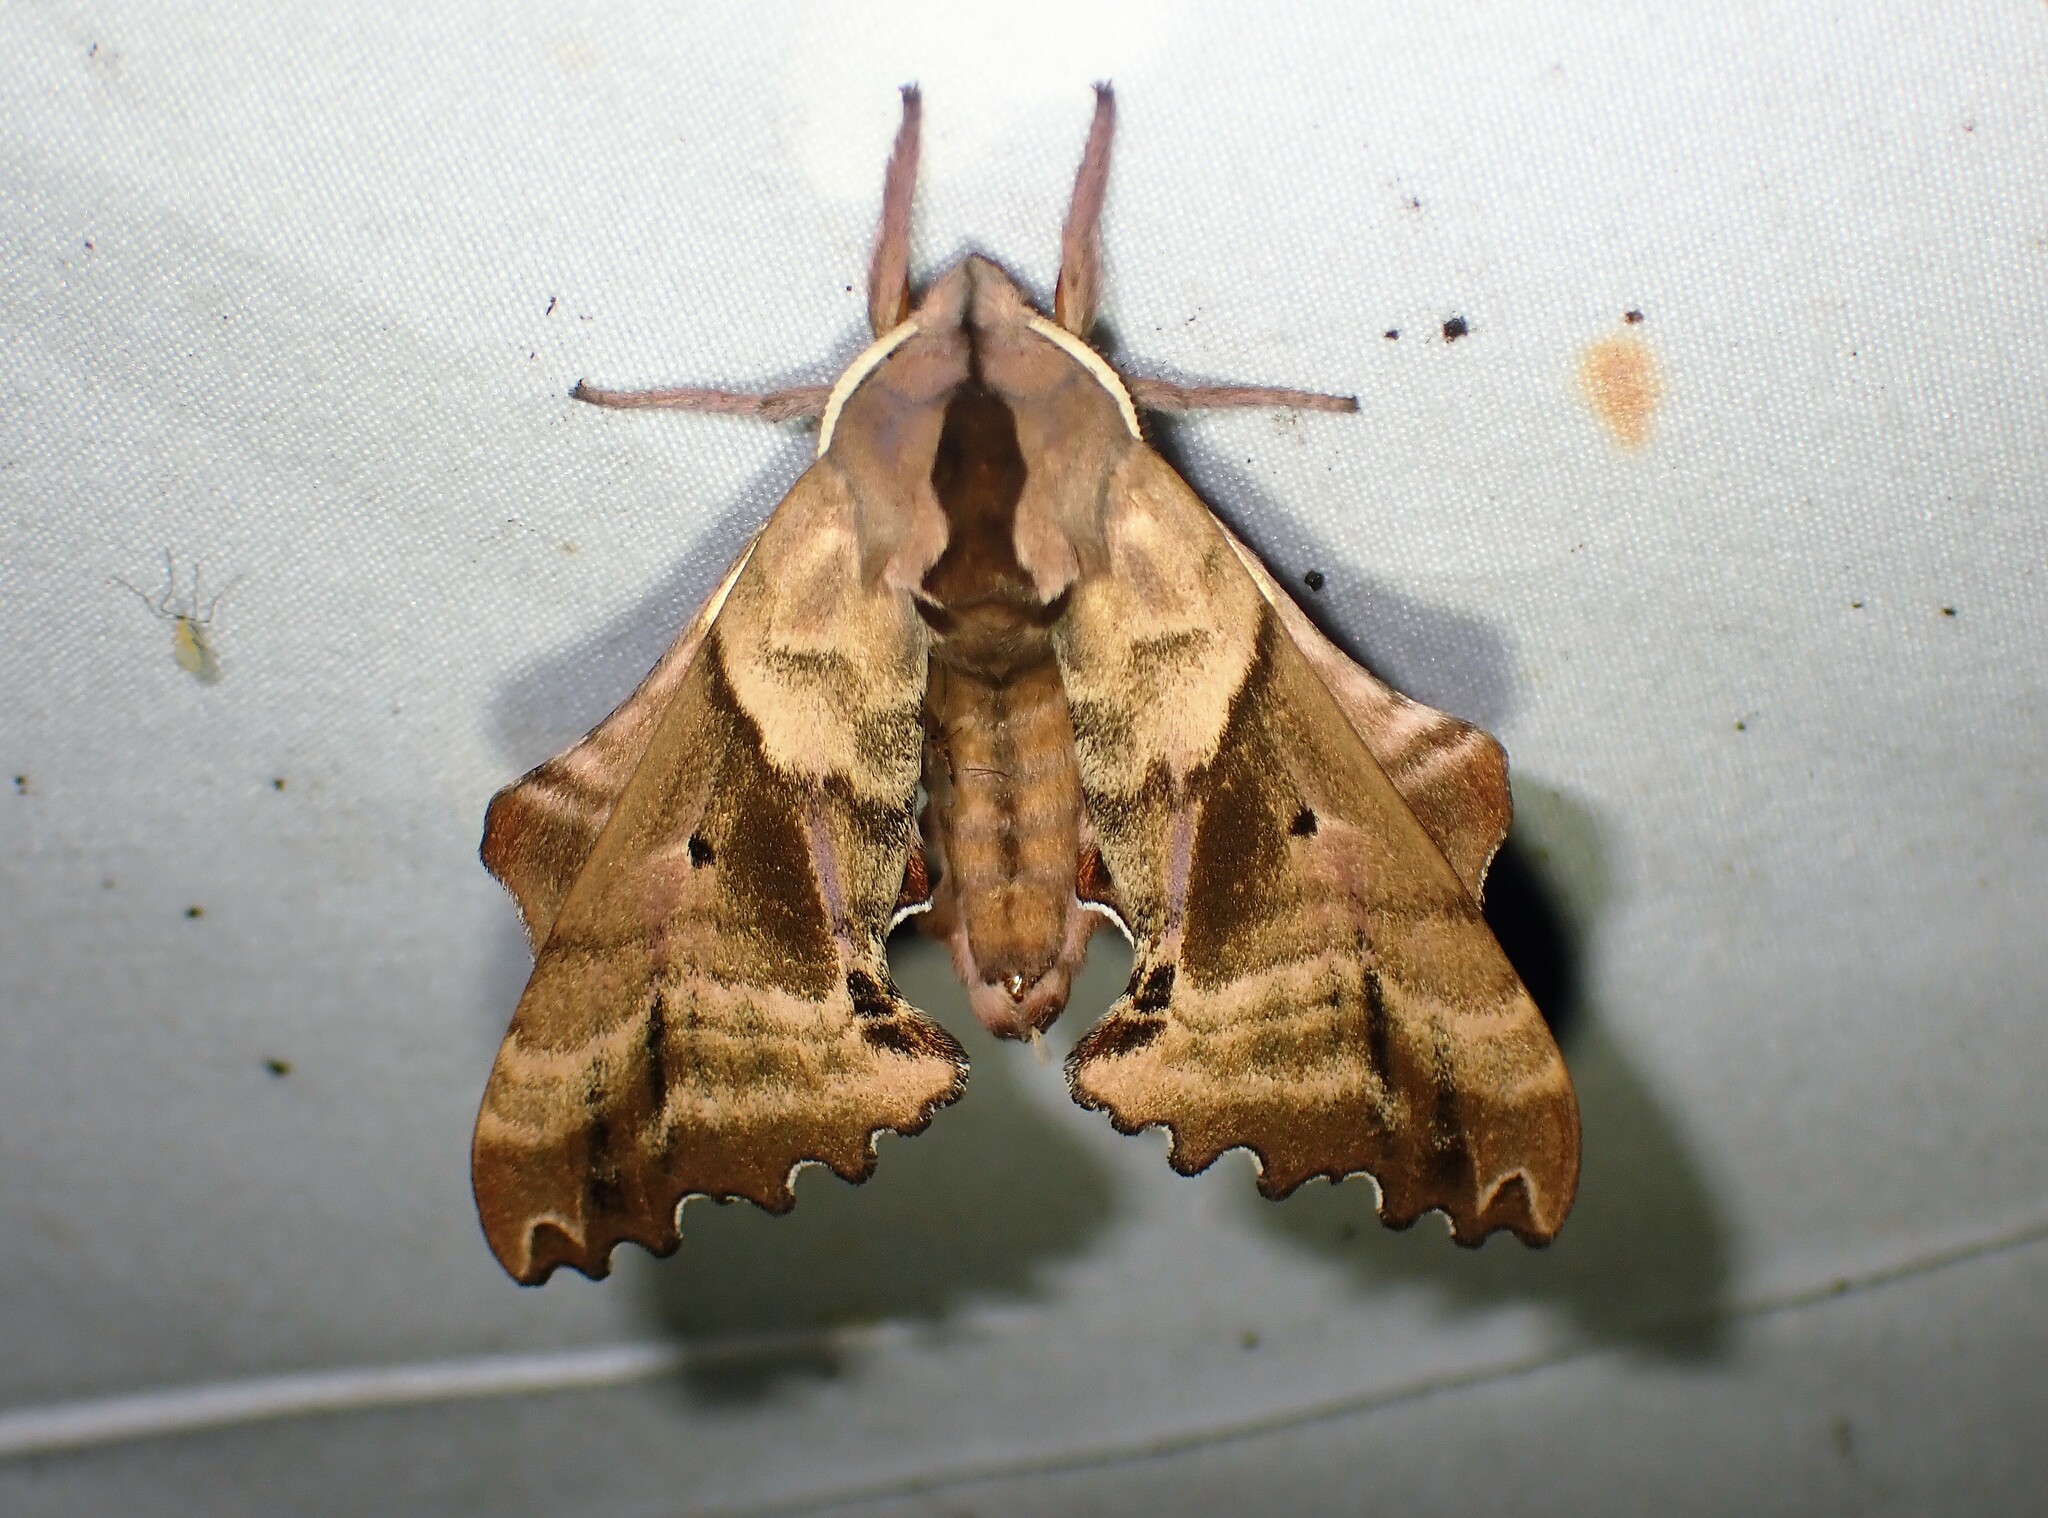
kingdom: Animalia
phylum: Arthropoda
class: Insecta
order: Lepidoptera
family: Sphingidae
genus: Paonias
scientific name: Paonias excaecata
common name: Blind-eyed sphinx
